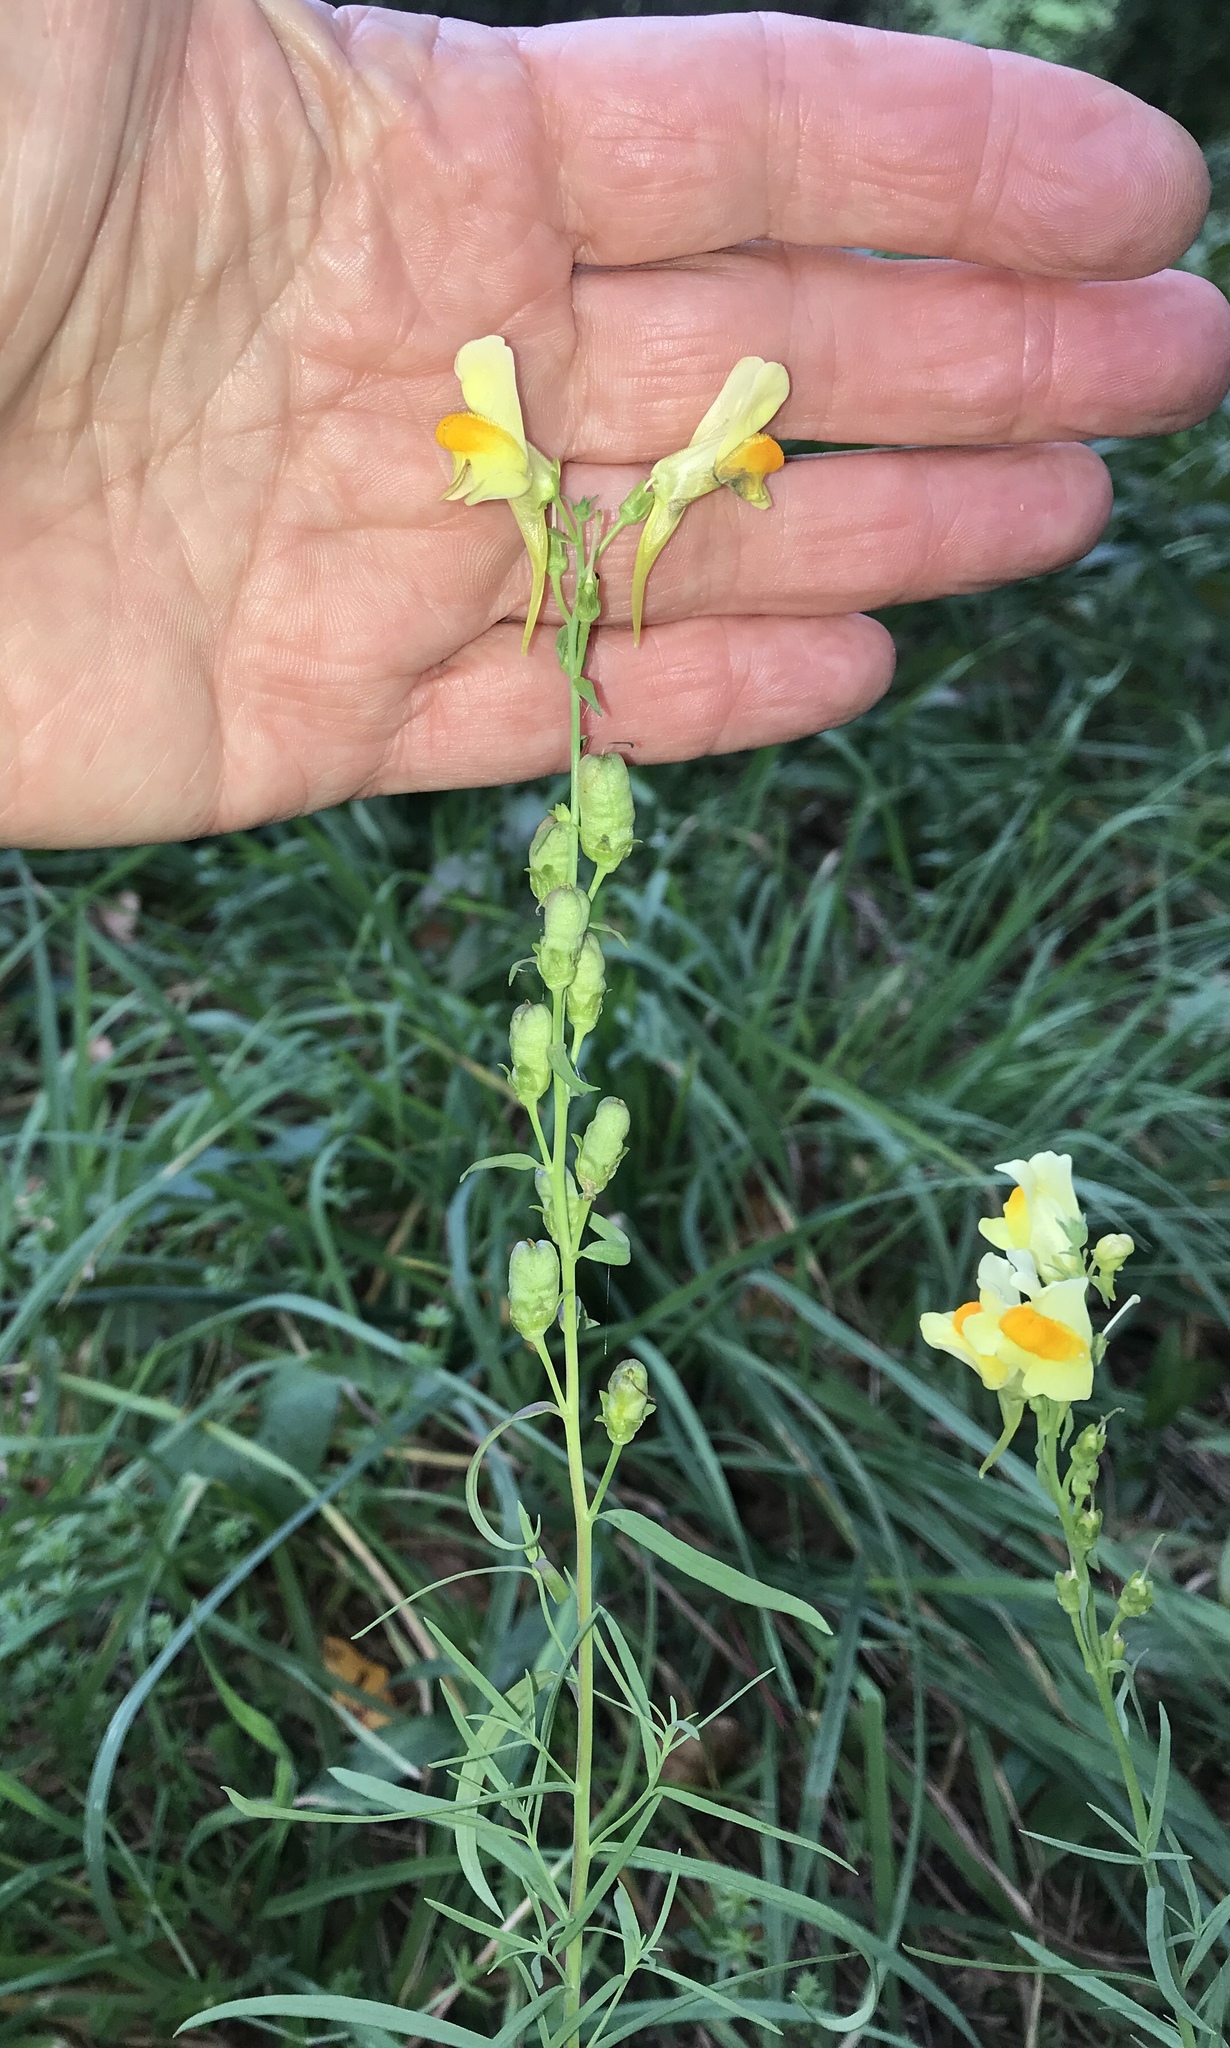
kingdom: Plantae
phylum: Tracheophyta
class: Magnoliopsida
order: Lamiales
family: Plantaginaceae
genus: Linaria
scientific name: Linaria vulgaris
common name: Butter and eggs
